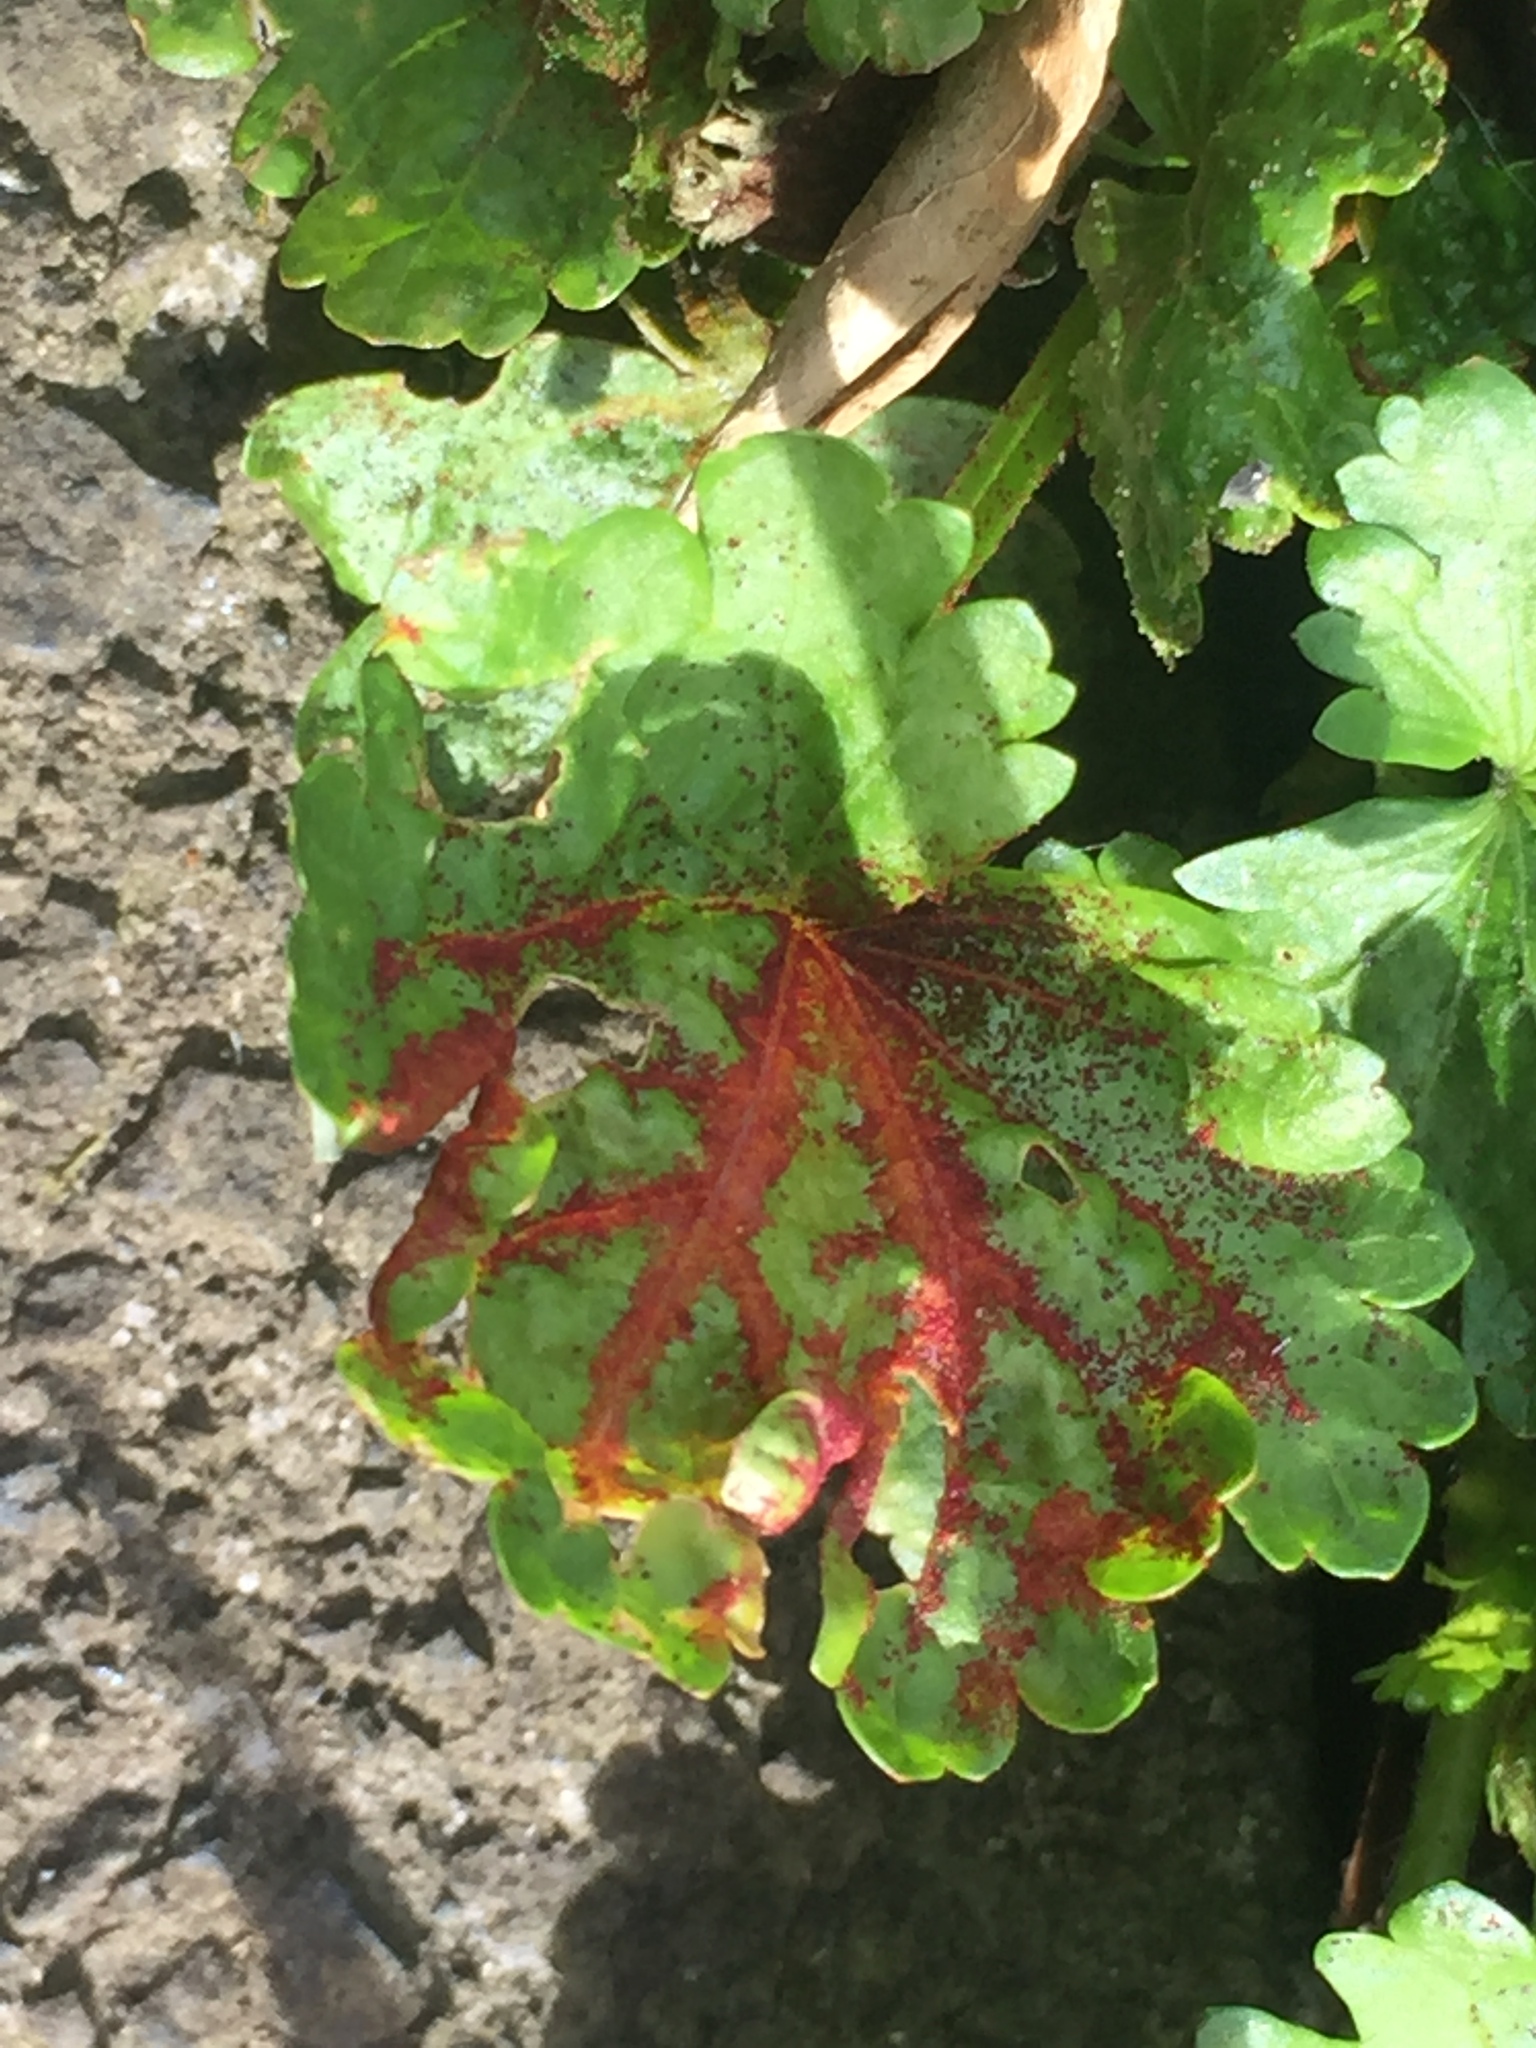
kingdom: Fungi
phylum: Chytridiomycota
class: Chytridiomycetes
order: Chytridiales
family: Synchytriaceae
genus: Synchytrium
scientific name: Synchytrium australe
